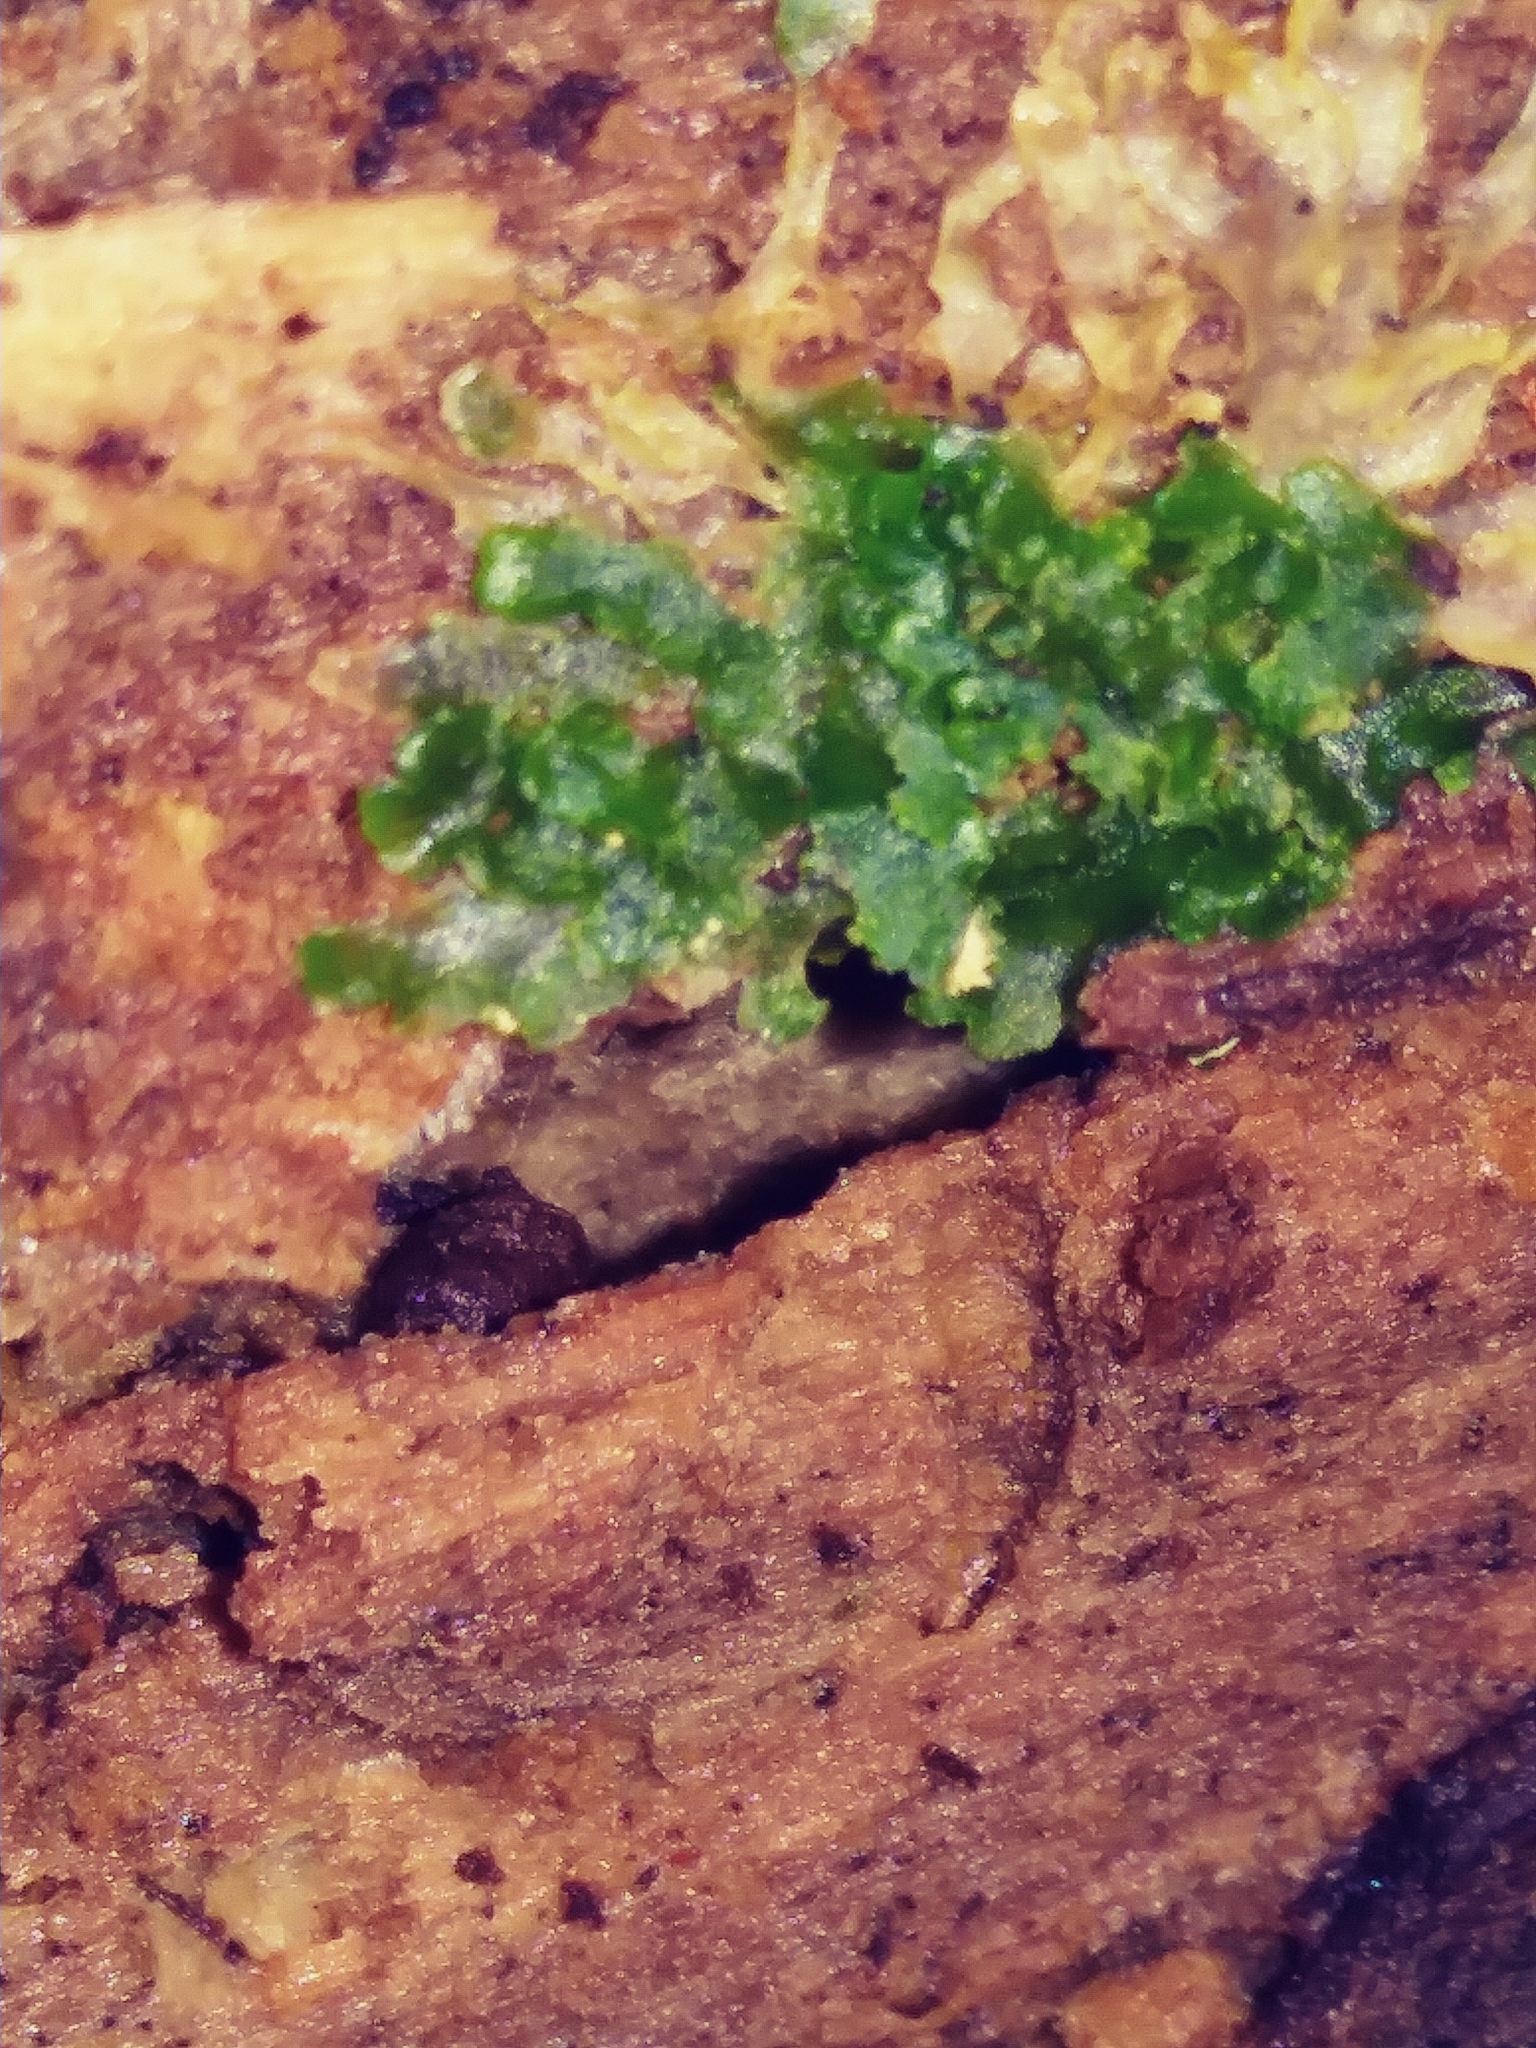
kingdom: Plantae
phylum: Marchantiophyta
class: Jungermanniopsida
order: Metzgeriales
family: Aneuraceae
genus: Aneura
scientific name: Aneura pinguis
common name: Common greasewort
